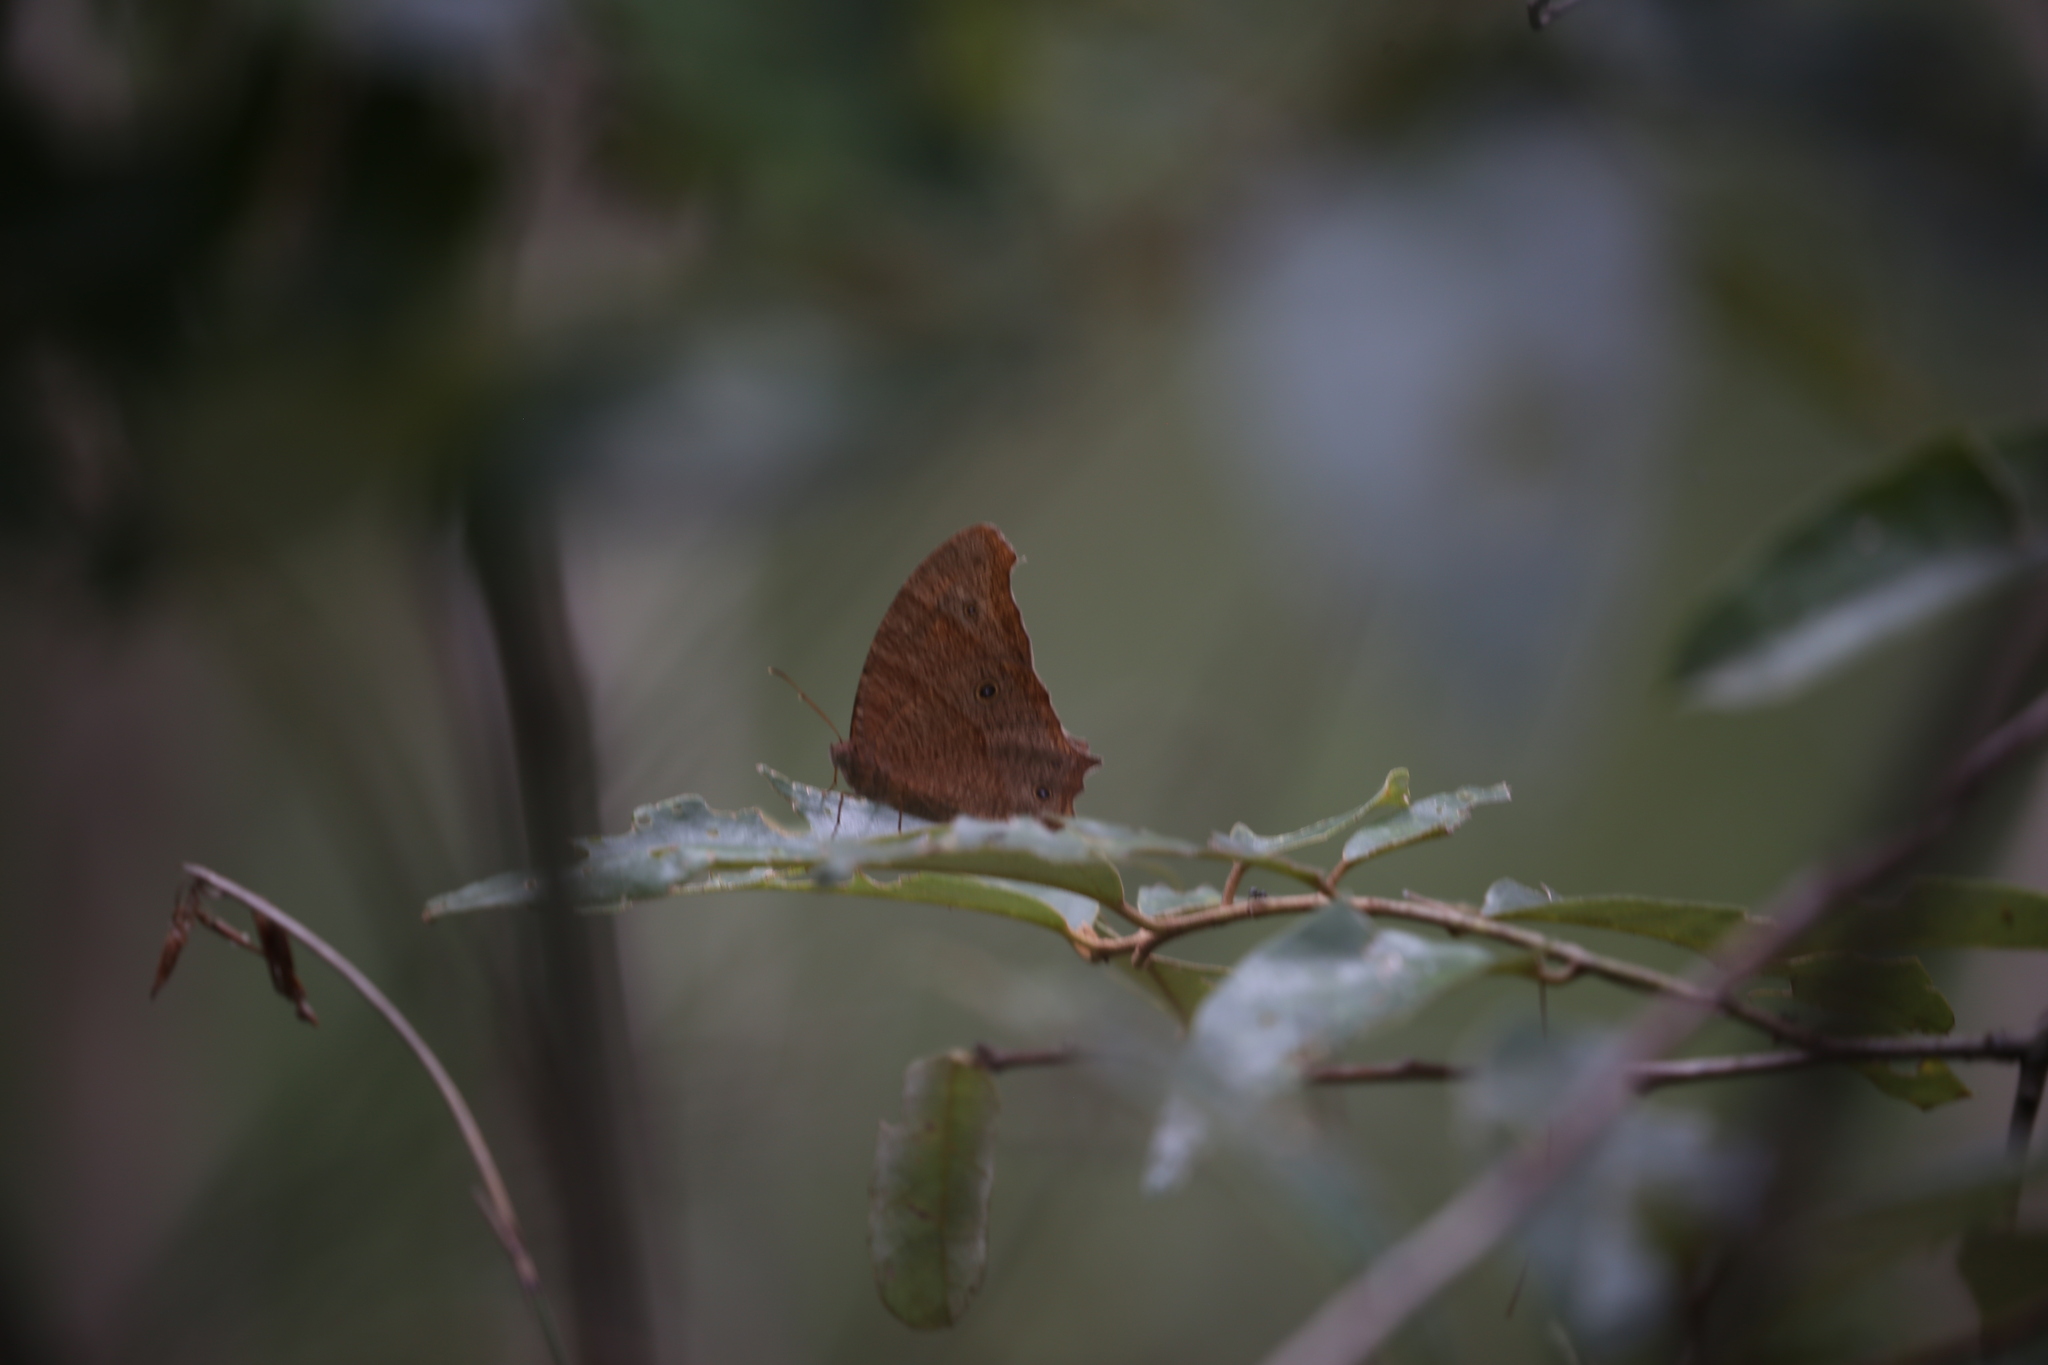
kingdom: Animalia
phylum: Arthropoda
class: Insecta
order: Lepidoptera
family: Nymphalidae
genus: Melanitis
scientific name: Melanitis leda
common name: Twilight brown
